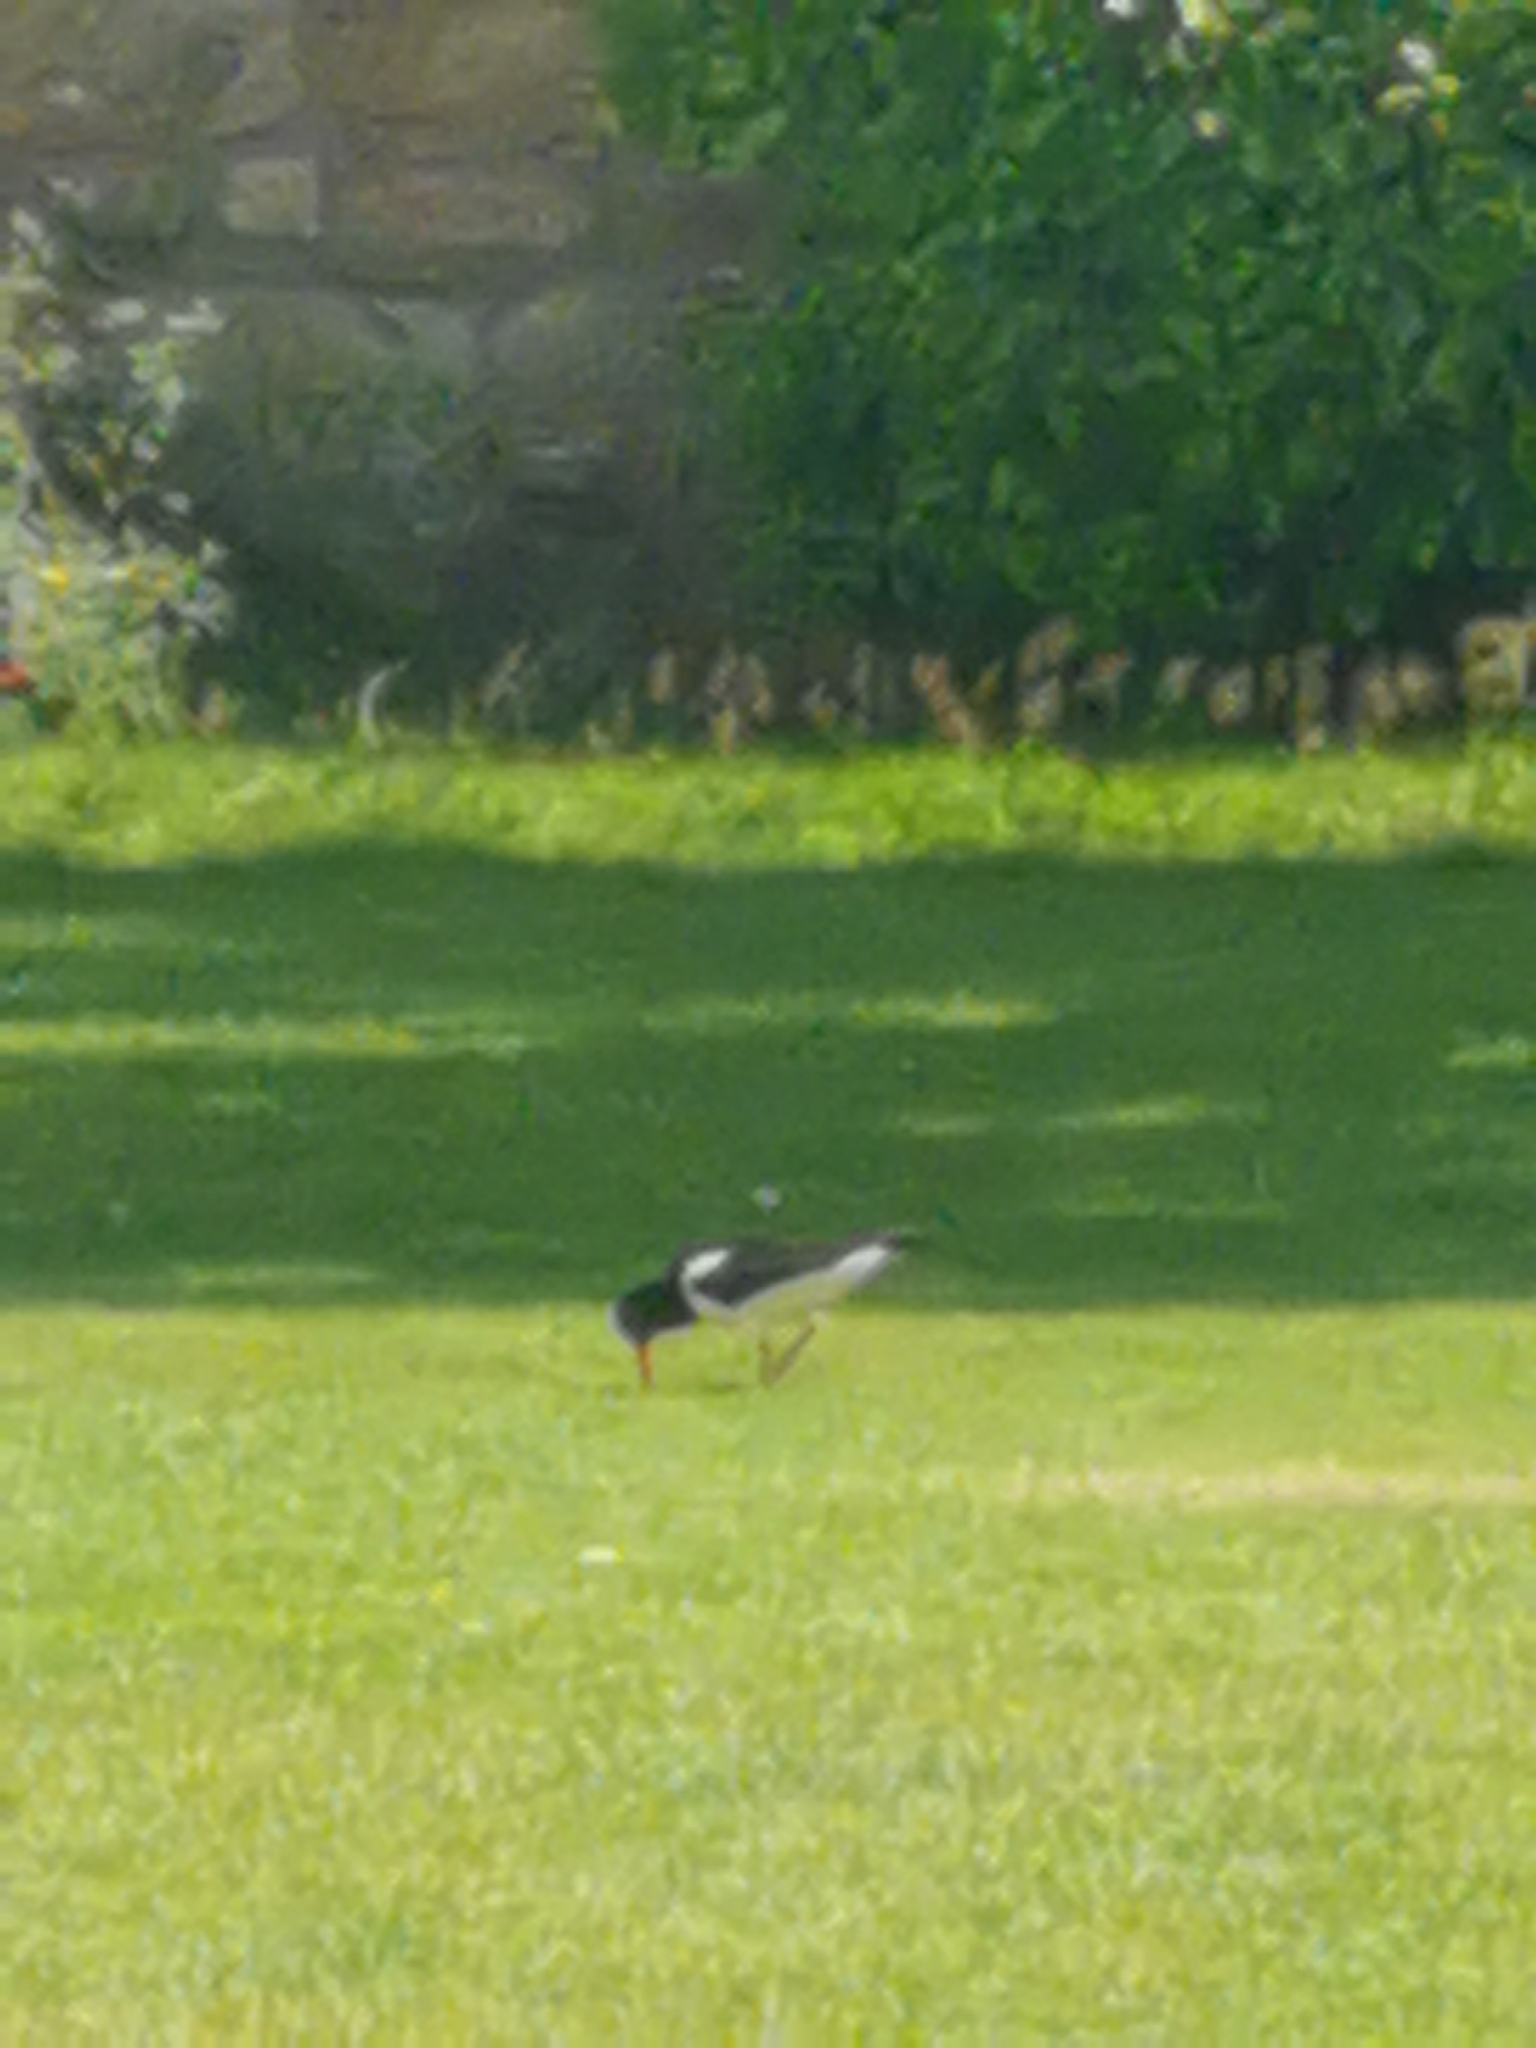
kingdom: Animalia
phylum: Chordata
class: Aves
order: Charadriiformes
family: Haematopodidae
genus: Haematopus
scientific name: Haematopus ostralegus
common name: Eurasian oystercatcher
